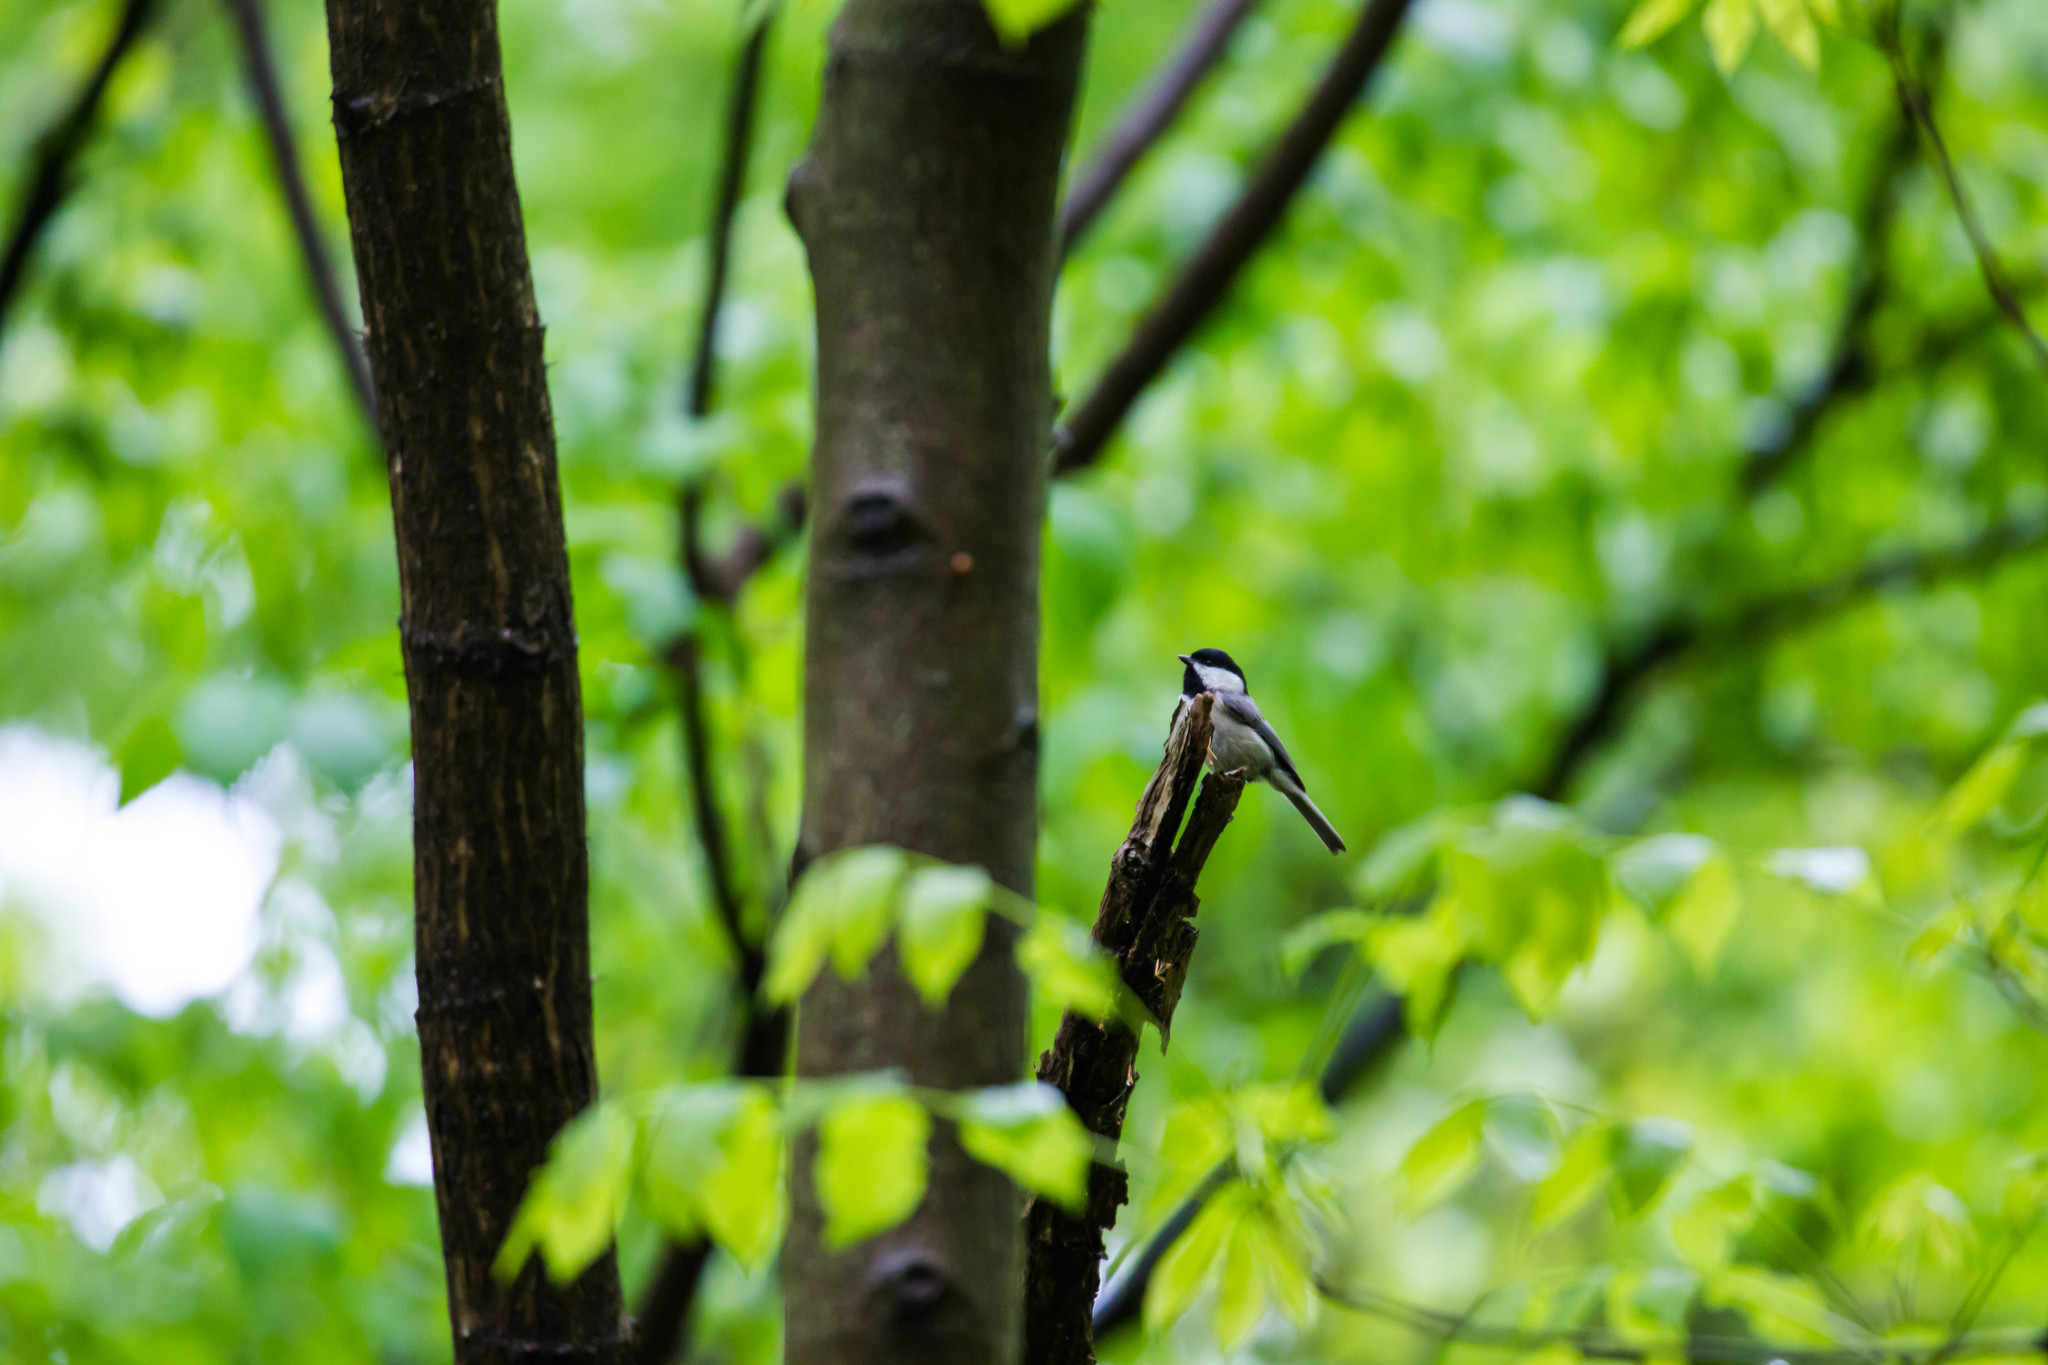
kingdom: Animalia
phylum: Chordata
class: Aves
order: Passeriformes
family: Paridae
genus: Poecile
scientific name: Poecile carolinensis
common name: Carolina chickadee
